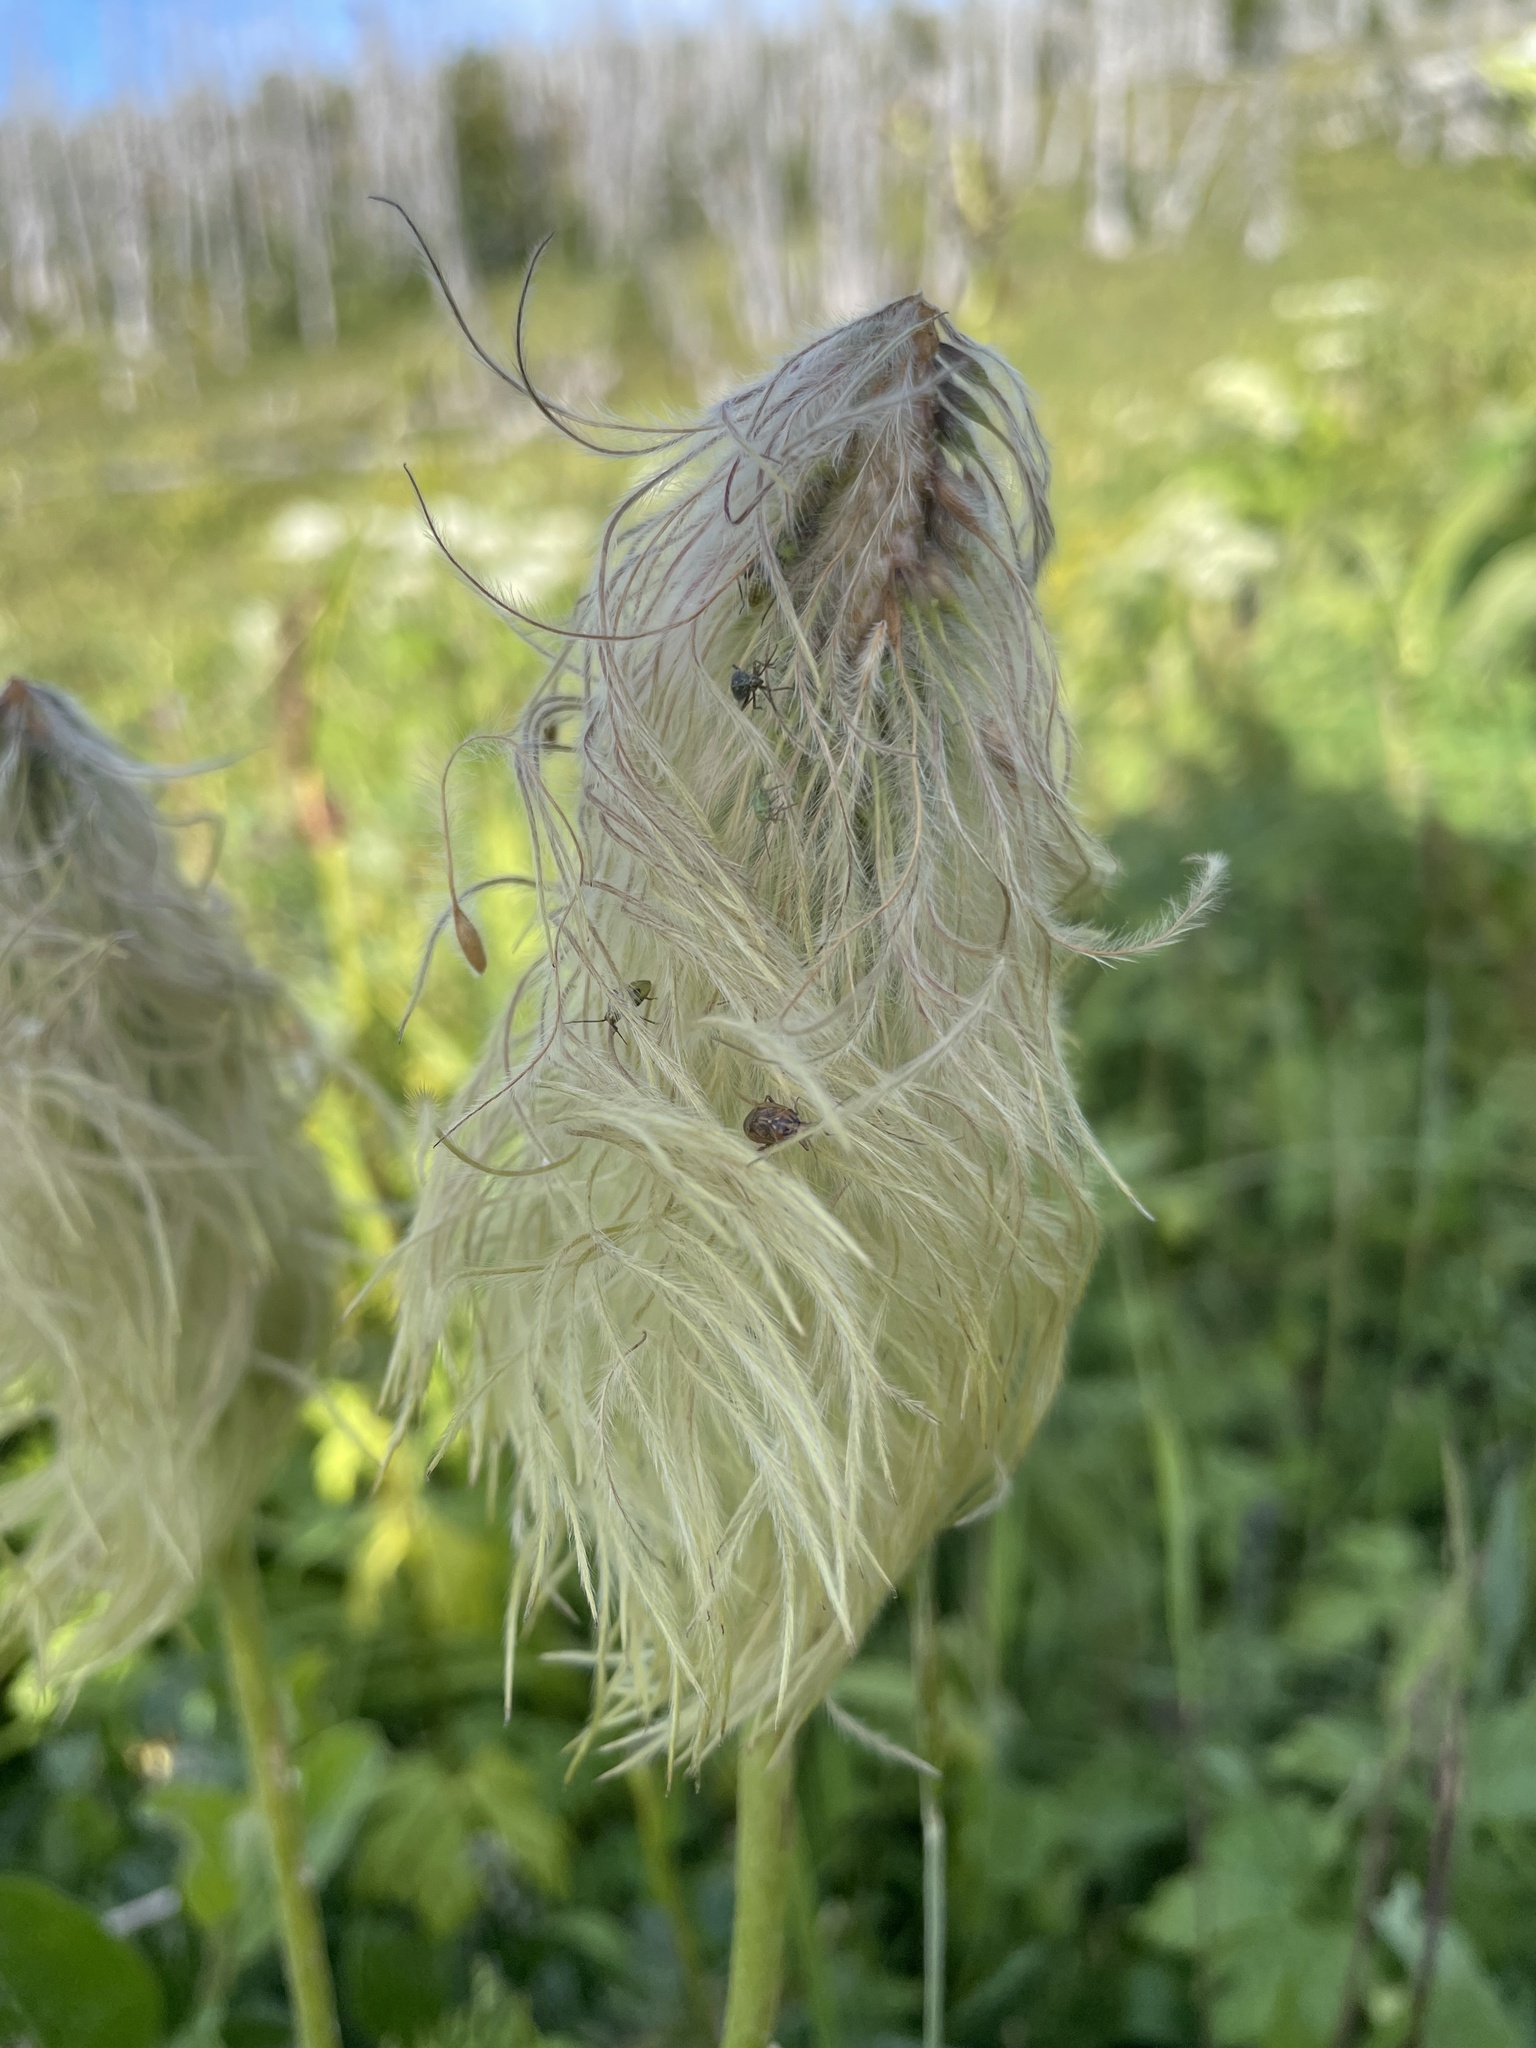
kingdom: Plantae
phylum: Tracheophyta
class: Magnoliopsida
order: Ranunculales
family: Ranunculaceae
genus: Pulsatilla
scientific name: Pulsatilla occidentalis
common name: Mountain pasqueflower
